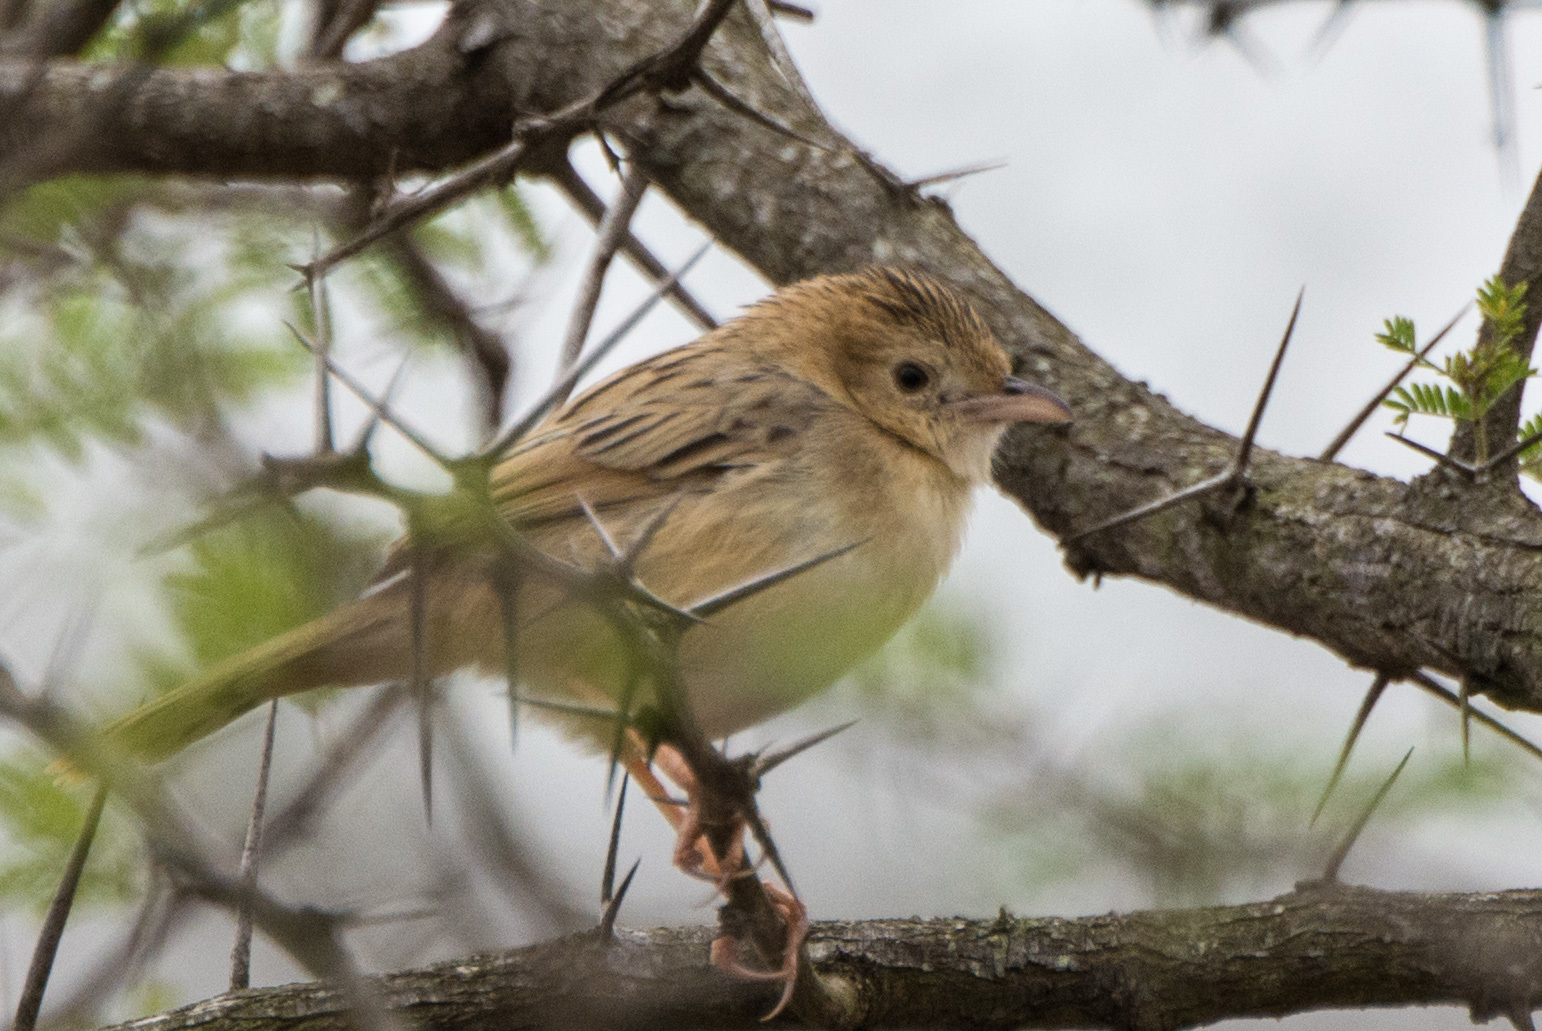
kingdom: Animalia
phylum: Chordata
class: Aves
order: Passeriformes
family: Cisticolidae
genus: Cisticola
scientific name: Cisticola chiniana
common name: Rattling cisticola
